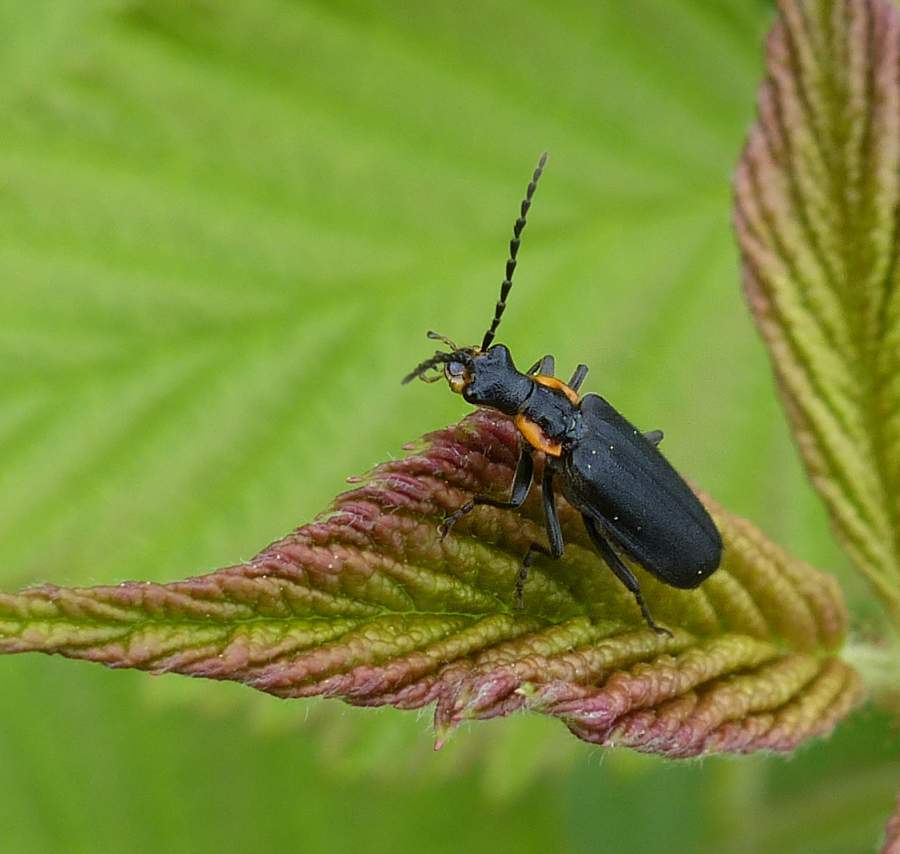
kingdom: Animalia
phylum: Arthropoda
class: Insecta
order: Coleoptera
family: Cantharidae
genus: Podabrus
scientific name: Podabrus rugosulus
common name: Wrinkled soldier beetle
